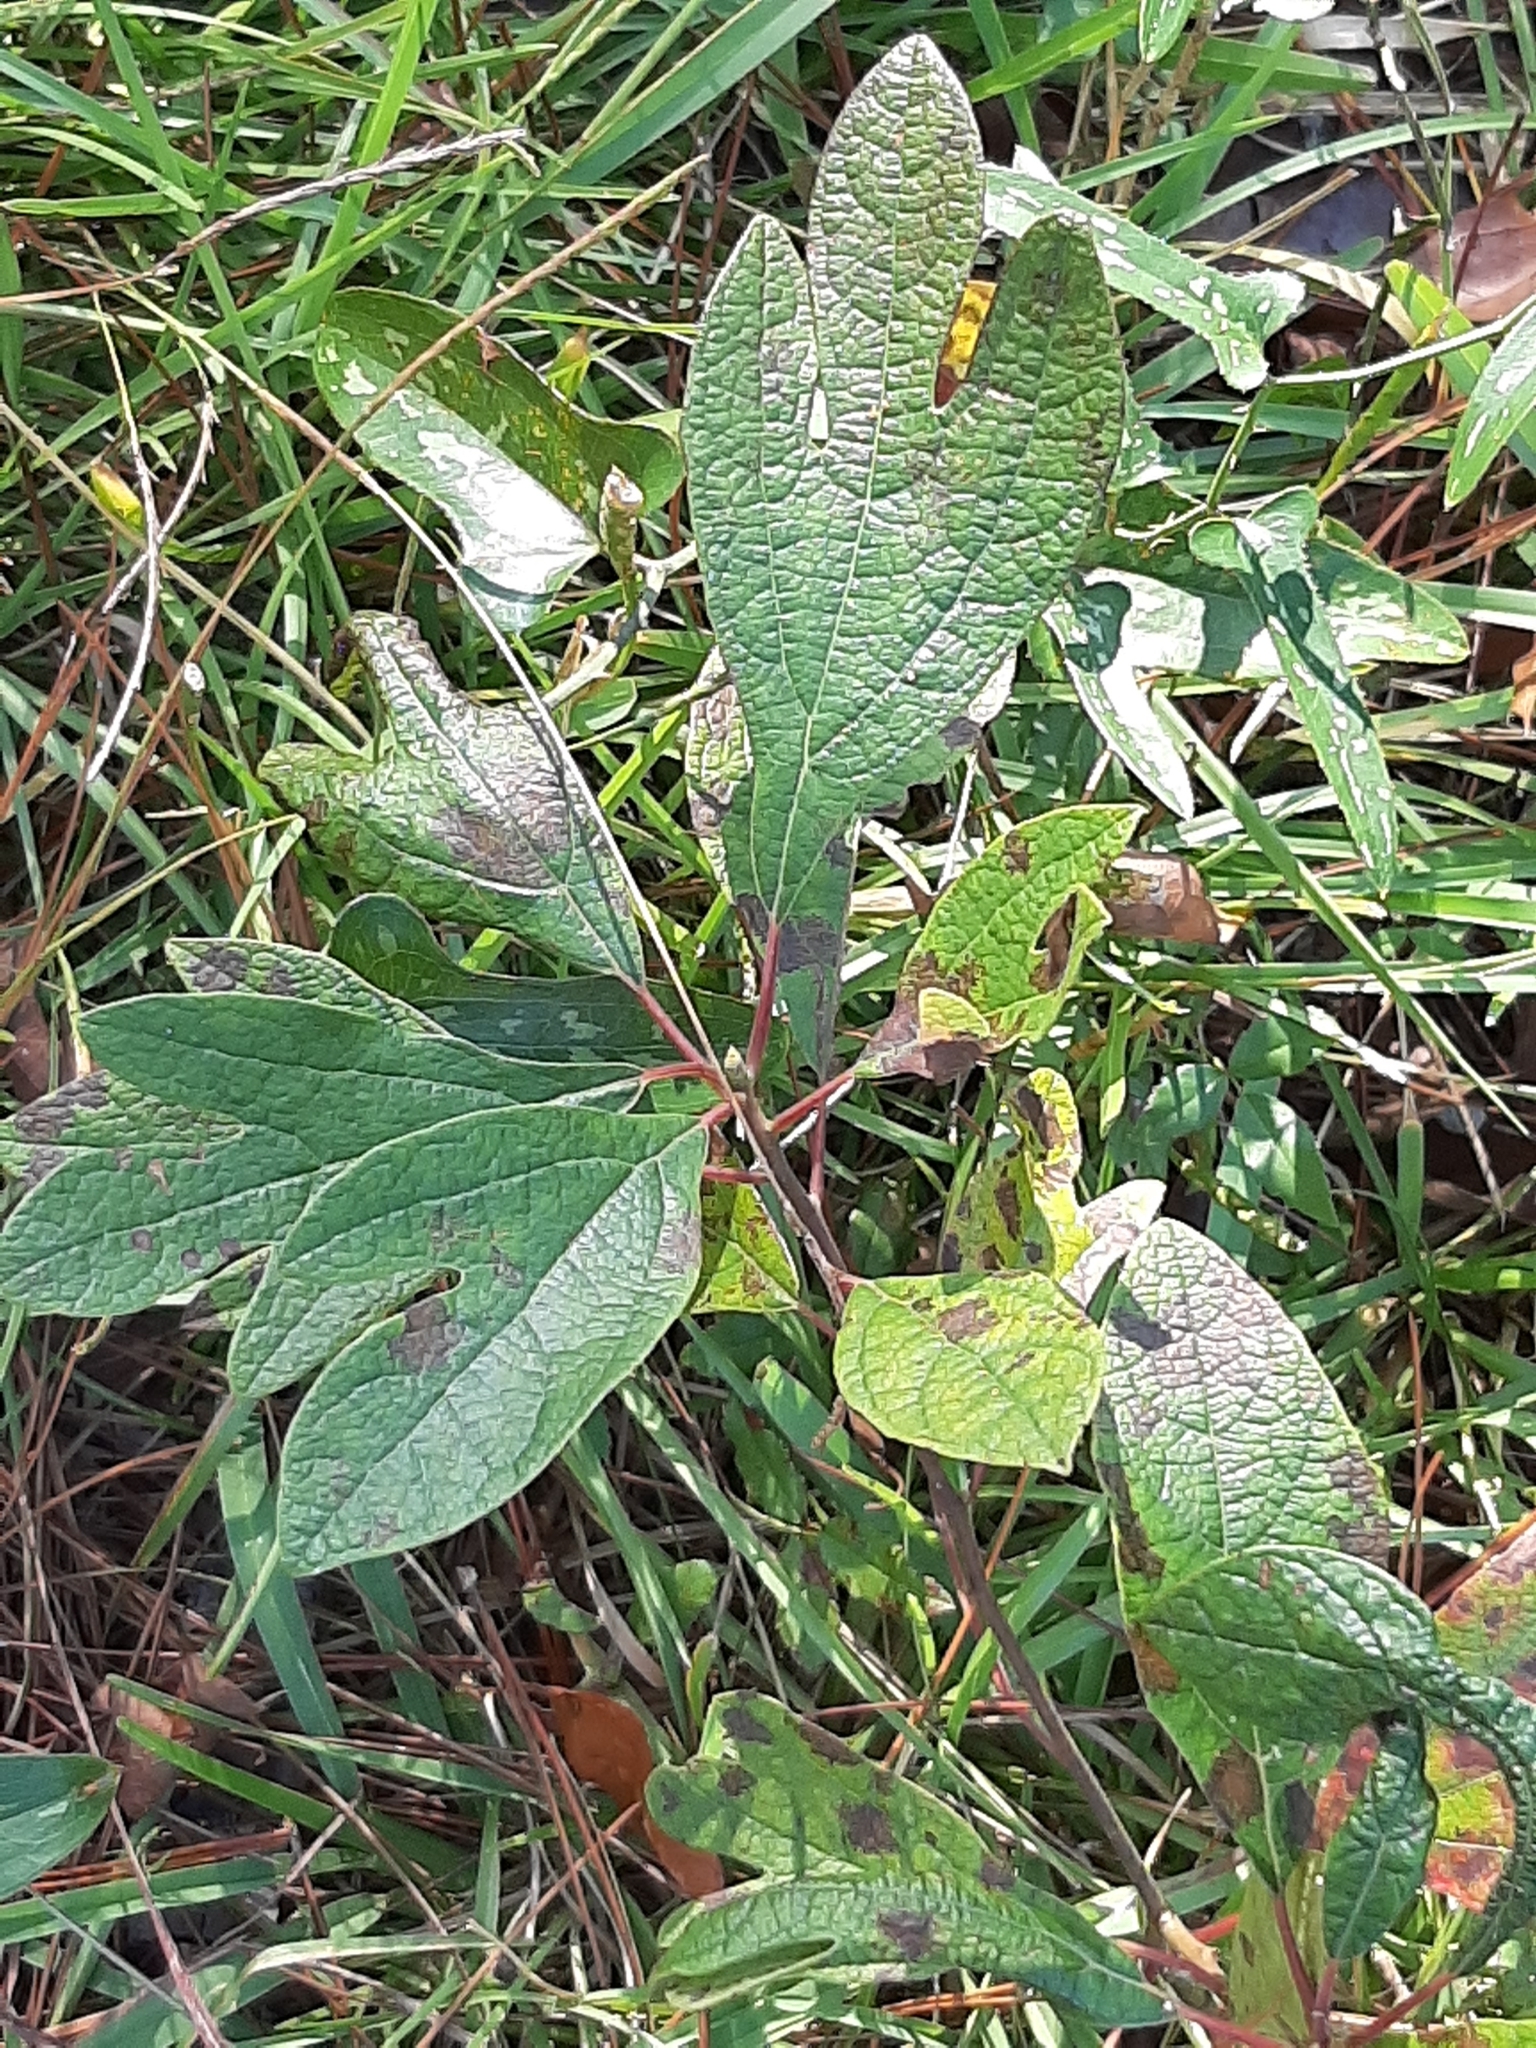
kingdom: Plantae
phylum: Tracheophyta
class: Magnoliopsida
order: Laurales
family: Lauraceae
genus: Sassafras
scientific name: Sassafras albidum
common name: Sassafras
